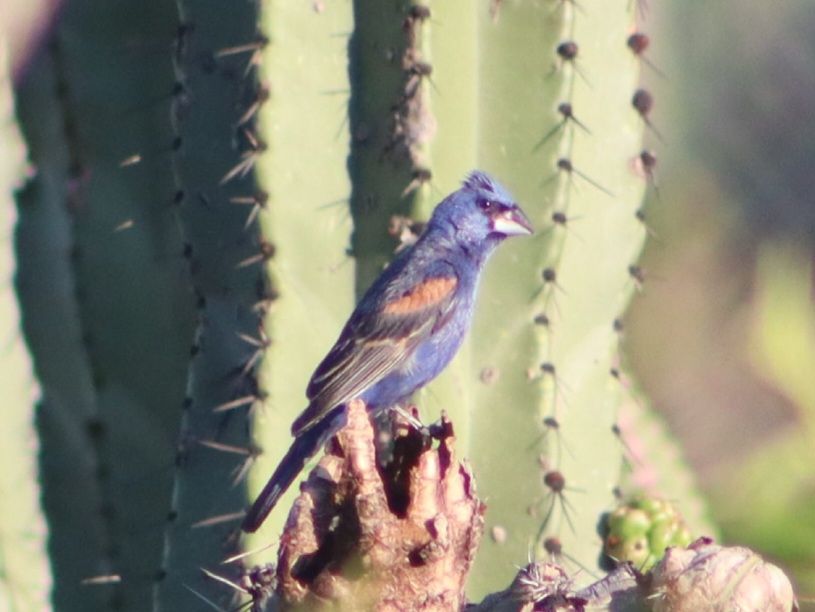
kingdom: Animalia
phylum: Chordata
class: Aves
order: Passeriformes
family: Cardinalidae
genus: Passerina
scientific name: Passerina caerulea
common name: Blue grosbeak
